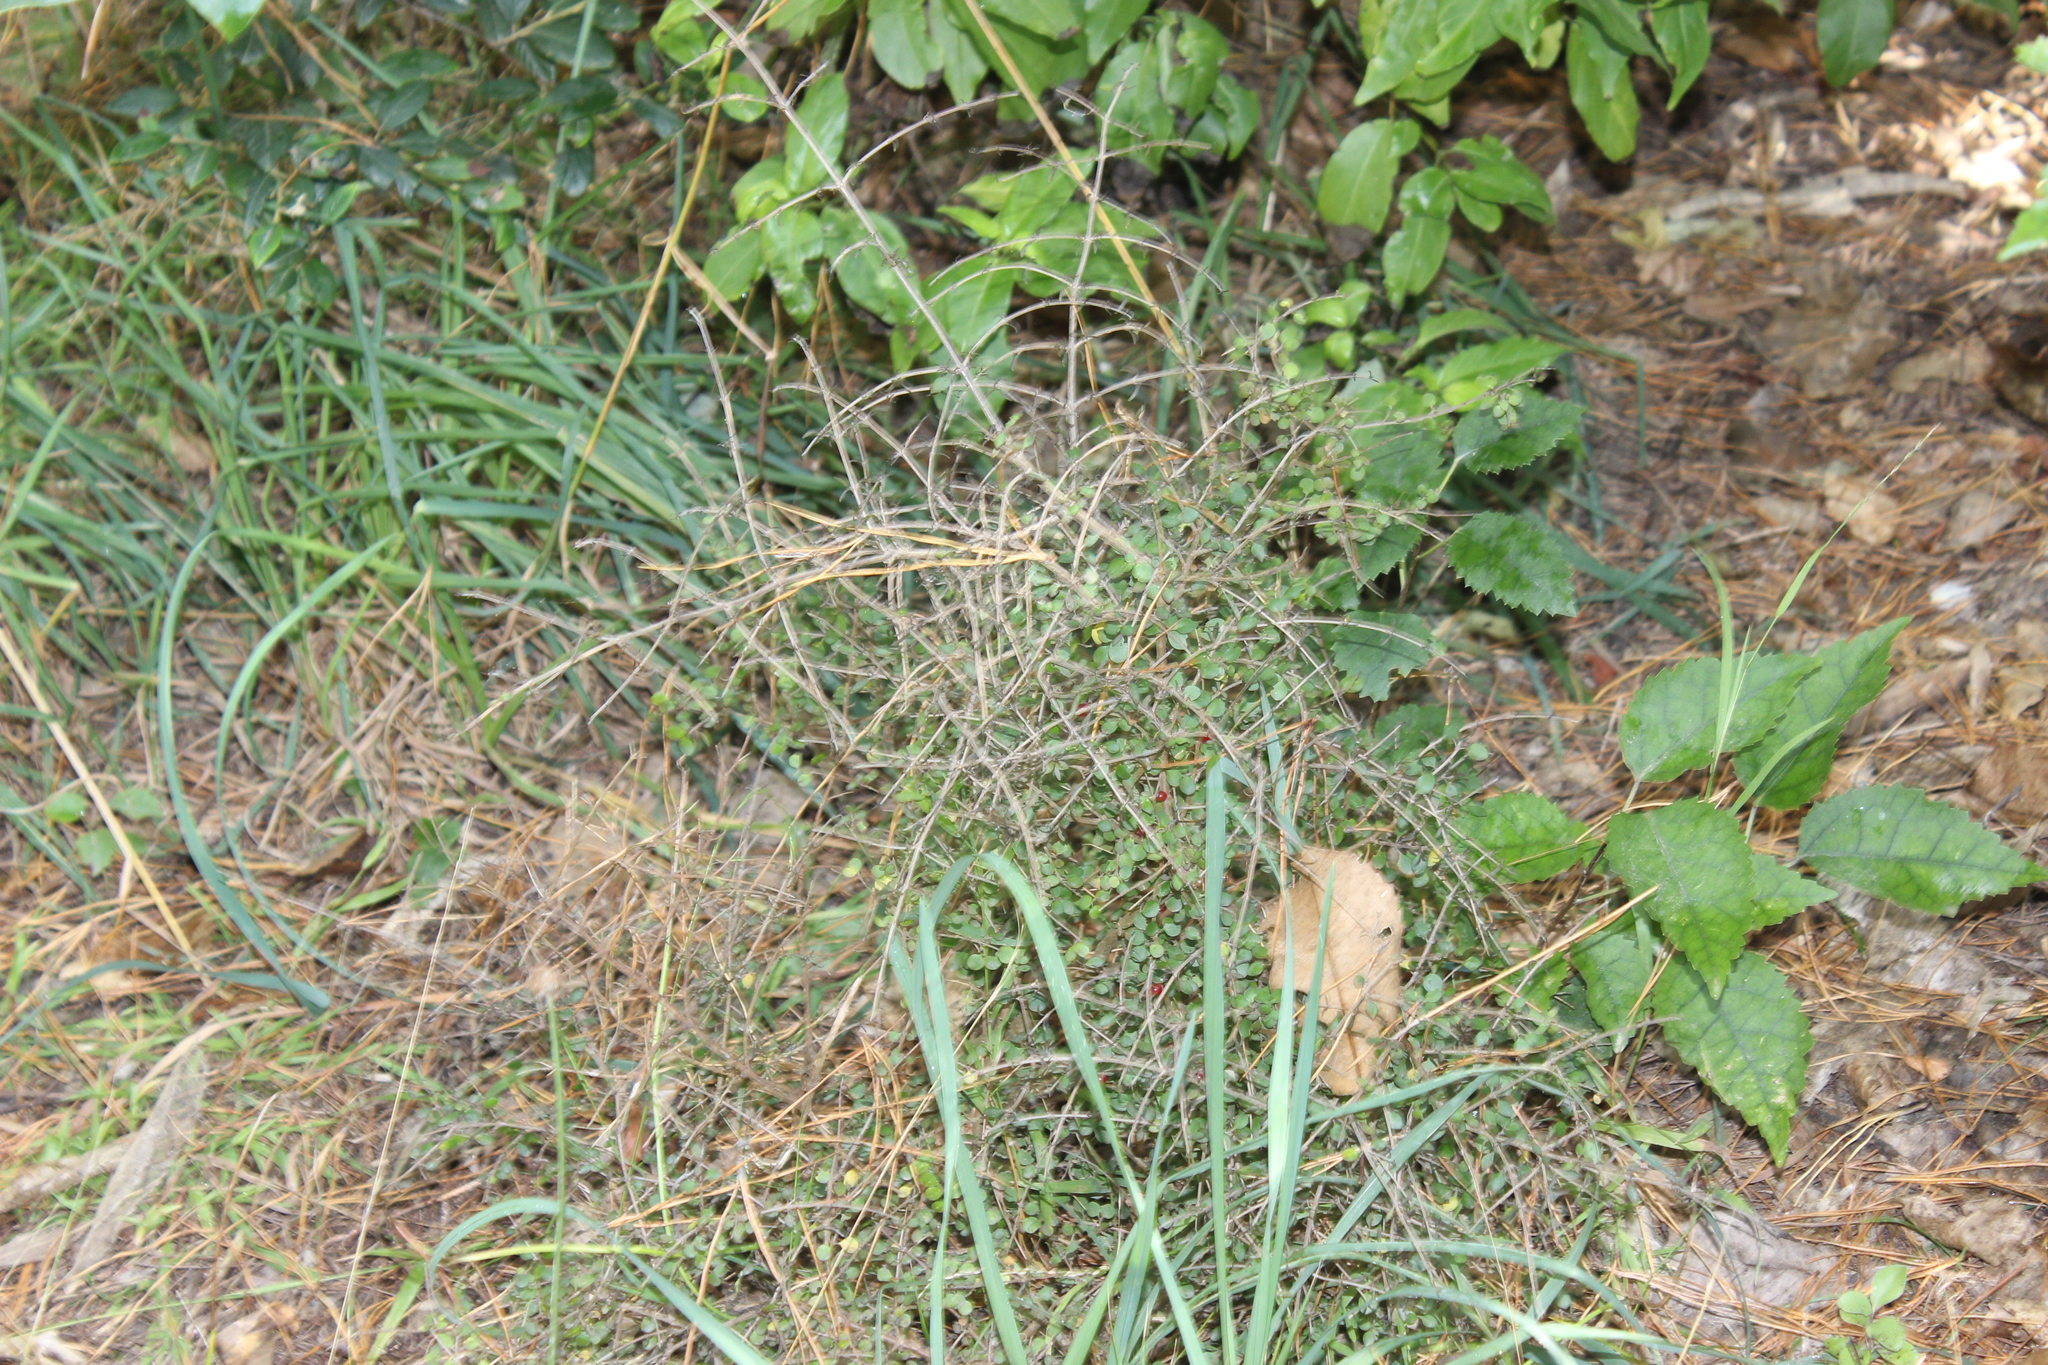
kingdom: Plantae
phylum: Tracheophyta
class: Magnoliopsida
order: Gentianales
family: Rubiaceae
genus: Coprosma
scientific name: Coprosma rhamnoides
